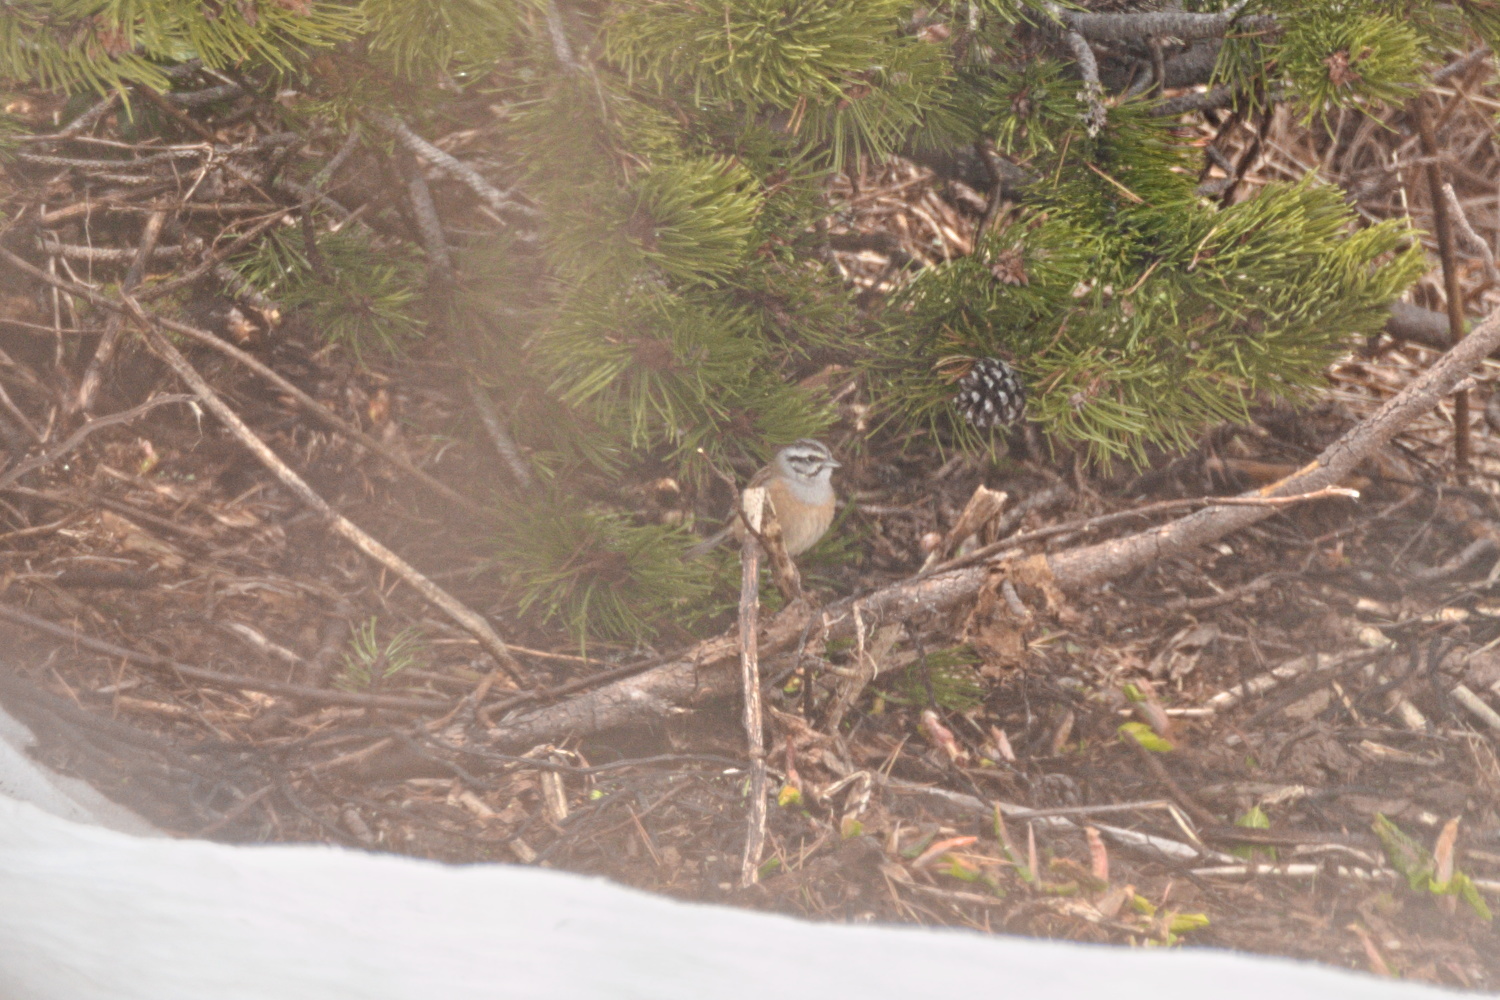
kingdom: Animalia
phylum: Chordata
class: Aves
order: Passeriformes
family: Emberizidae
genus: Emberiza
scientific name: Emberiza cia
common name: Rock bunting
